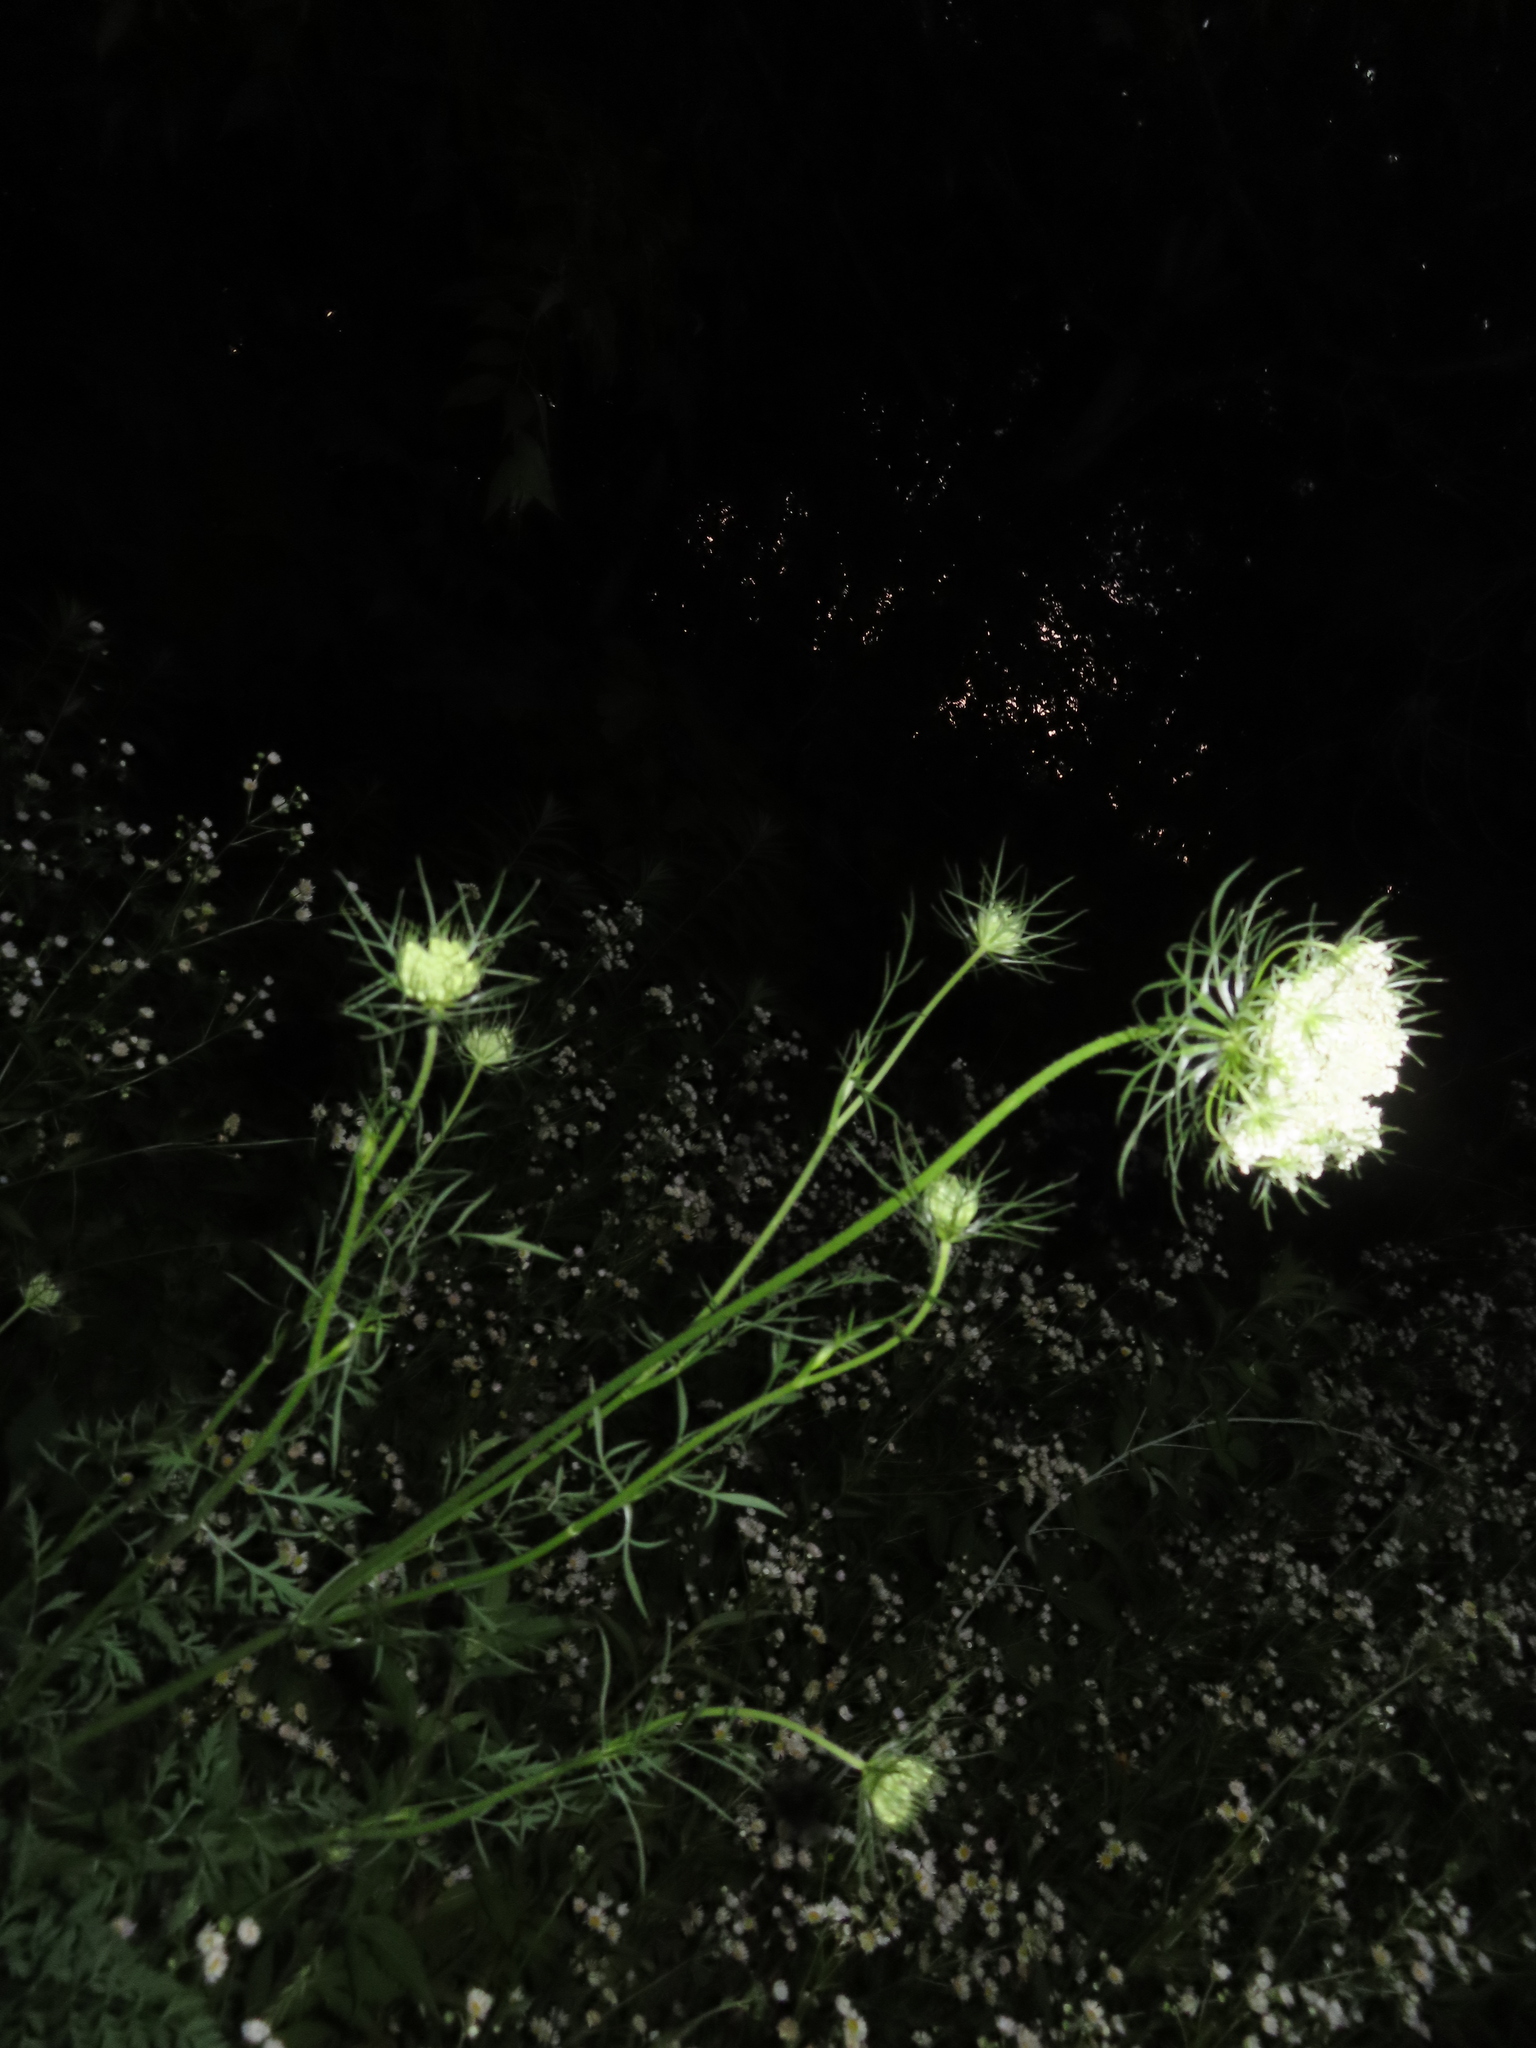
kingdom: Plantae
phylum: Tracheophyta
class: Magnoliopsida
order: Apiales
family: Apiaceae
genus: Daucus
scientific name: Daucus carota
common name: Wild carrot
